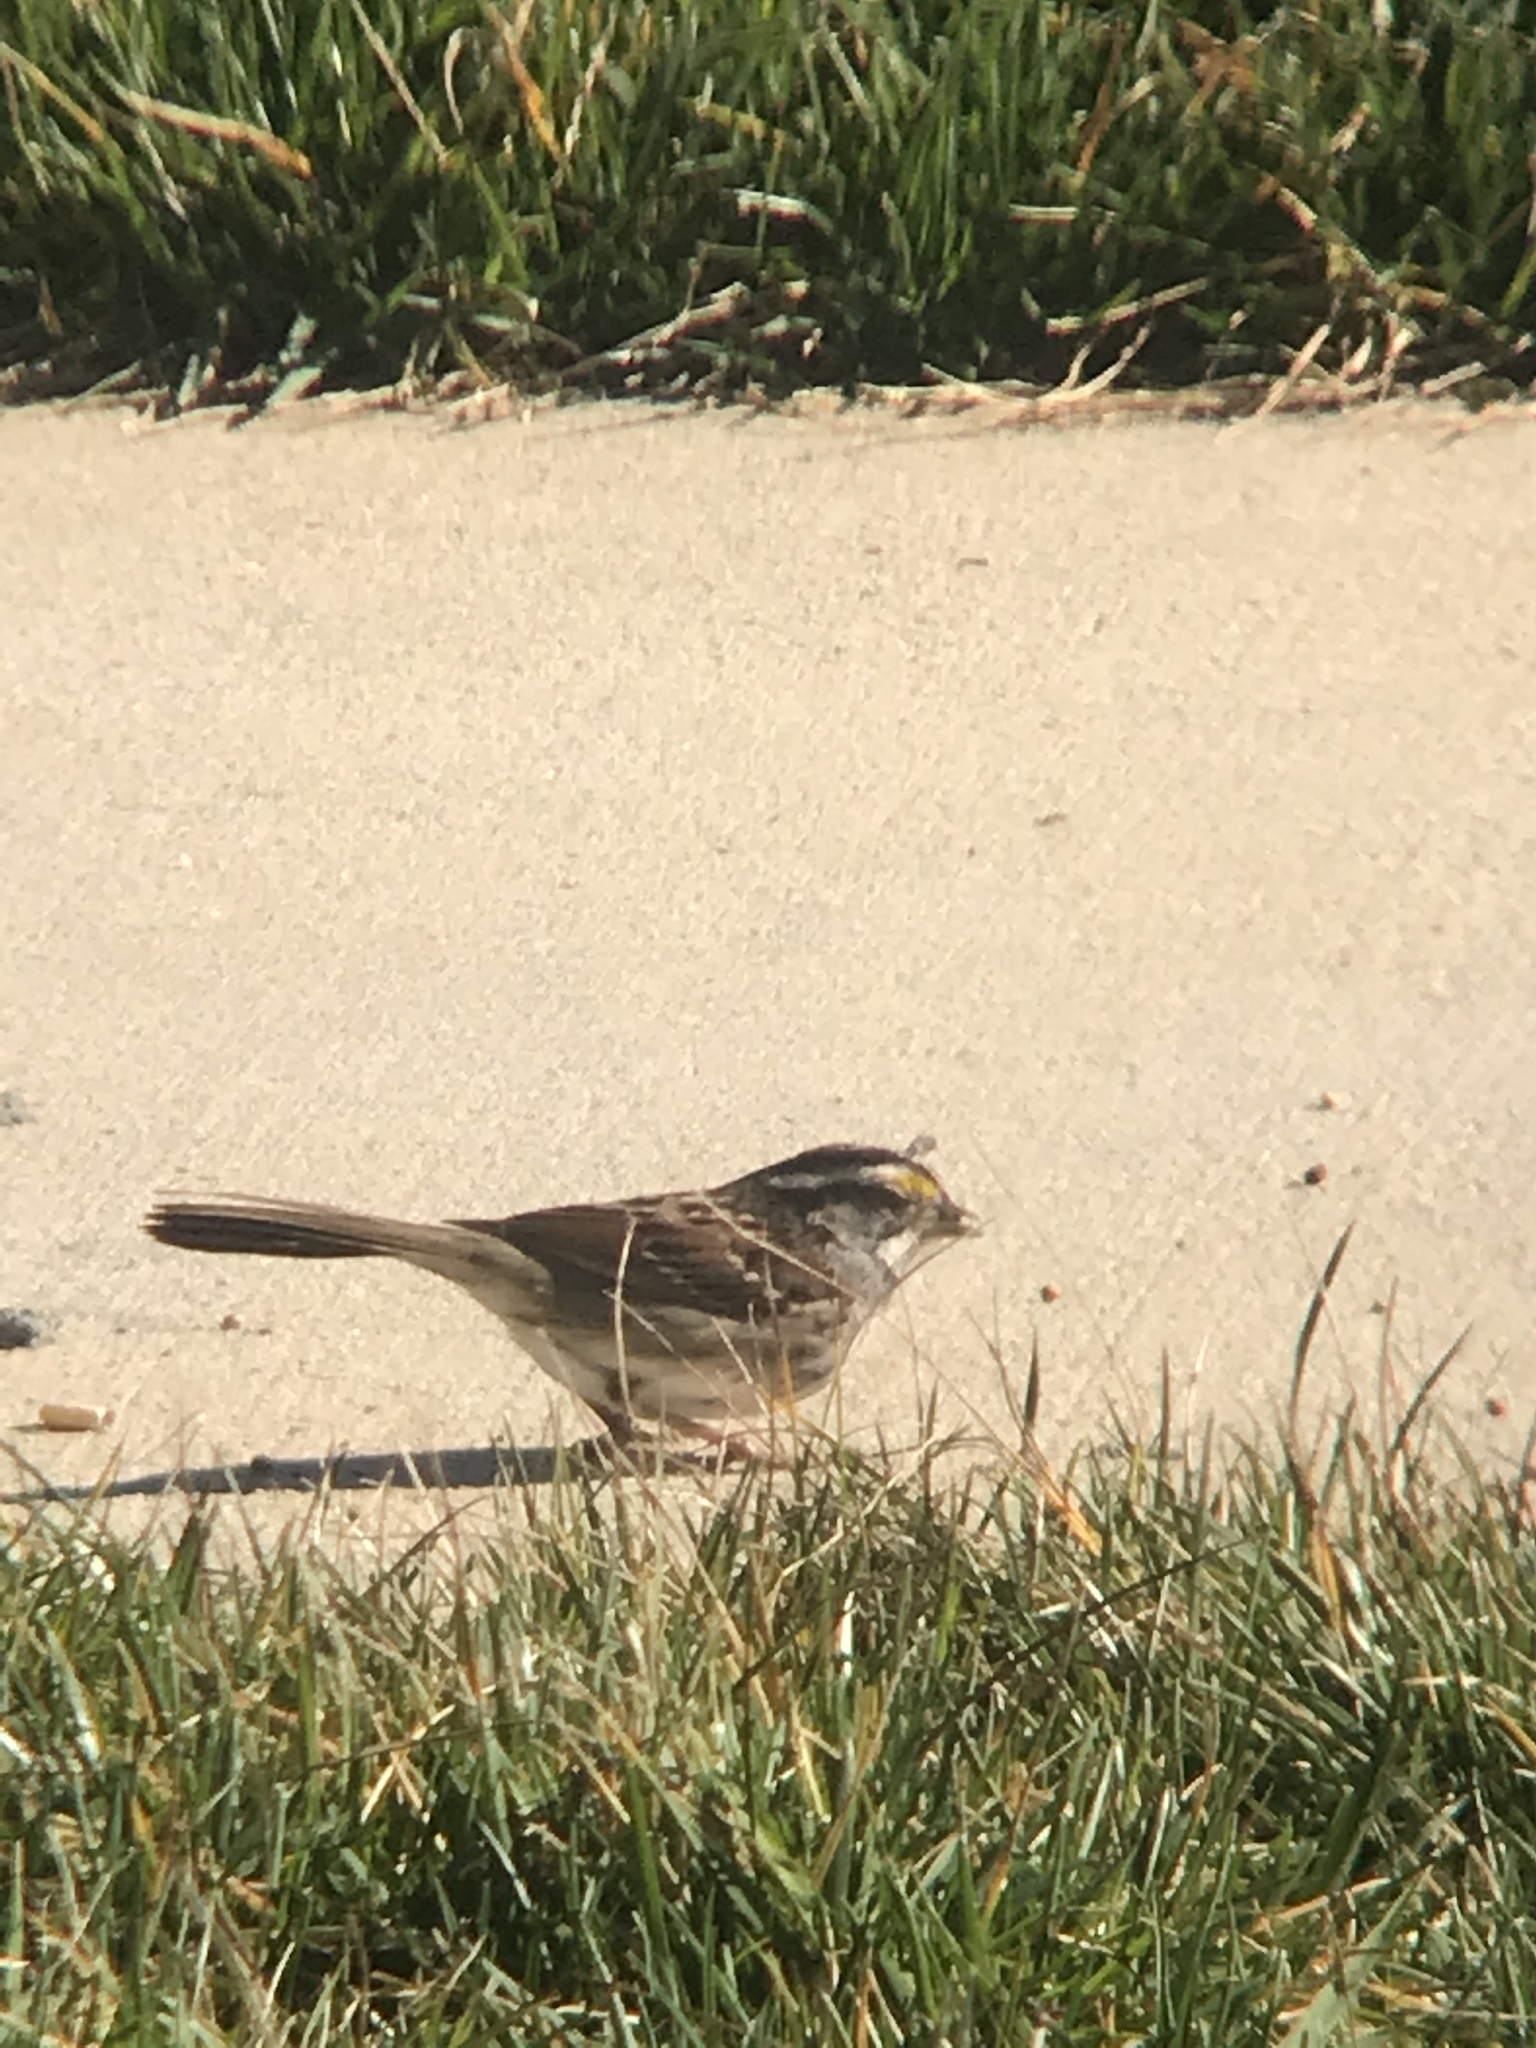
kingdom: Animalia
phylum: Chordata
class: Aves
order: Passeriformes
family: Passerellidae
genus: Zonotrichia
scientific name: Zonotrichia albicollis
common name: White-throated sparrow
